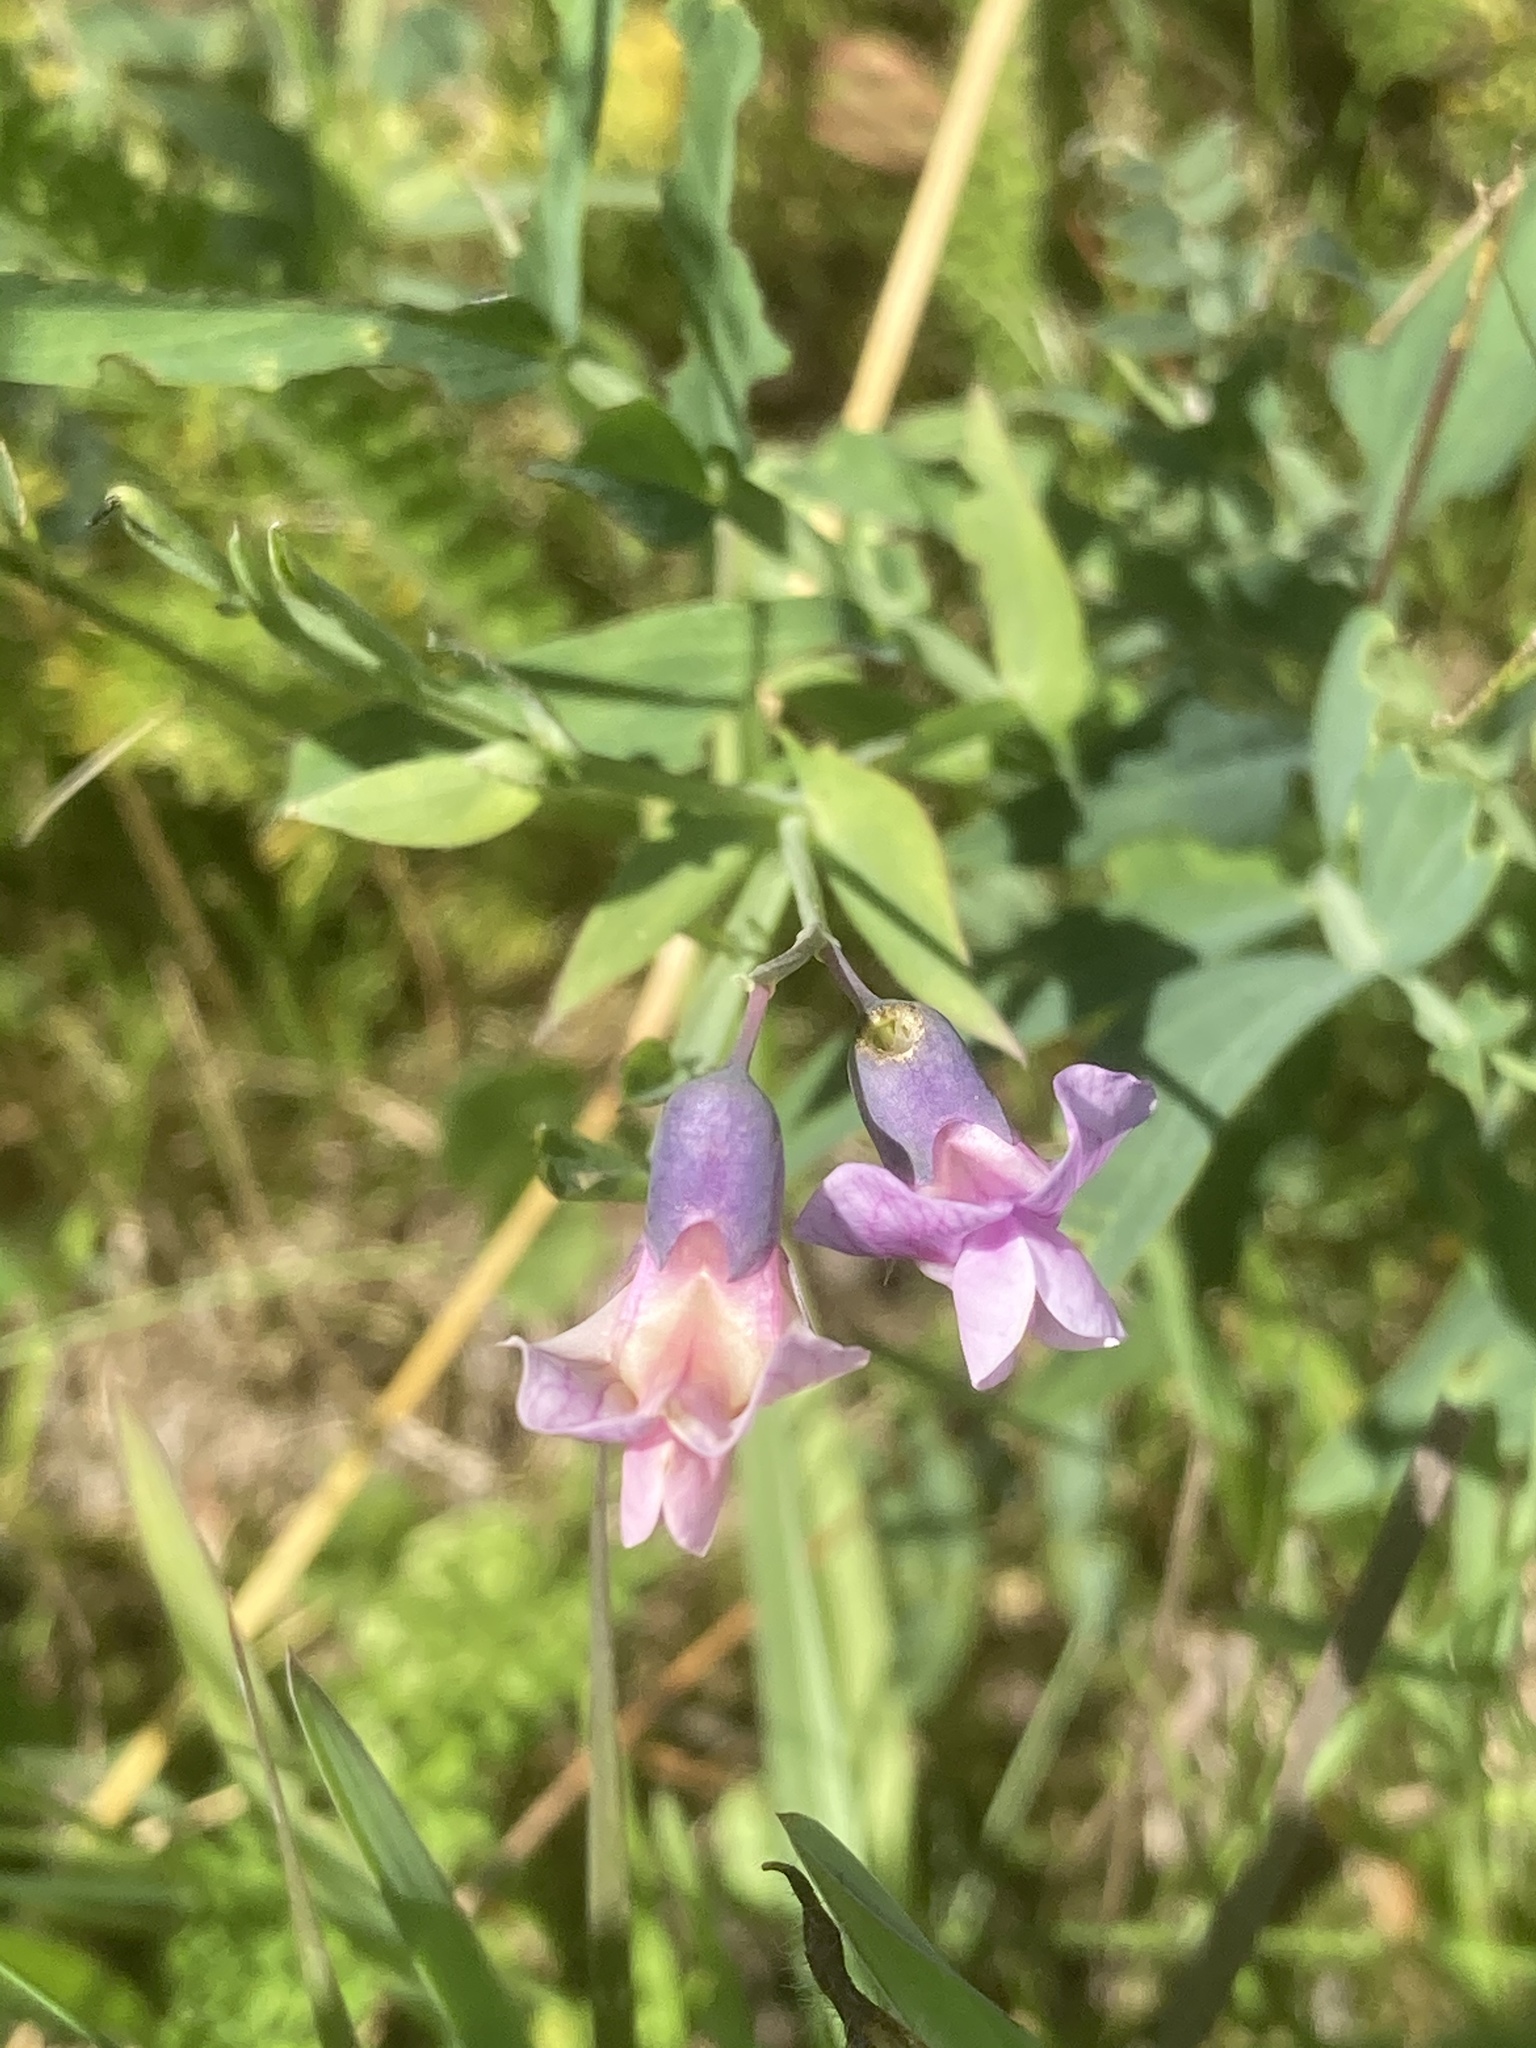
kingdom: Plantae
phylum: Tracheophyta
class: Magnoliopsida
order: Fabales
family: Fabaceae
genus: Lathyrus
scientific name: Lathyrus linifolius
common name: Bitter-vetch
